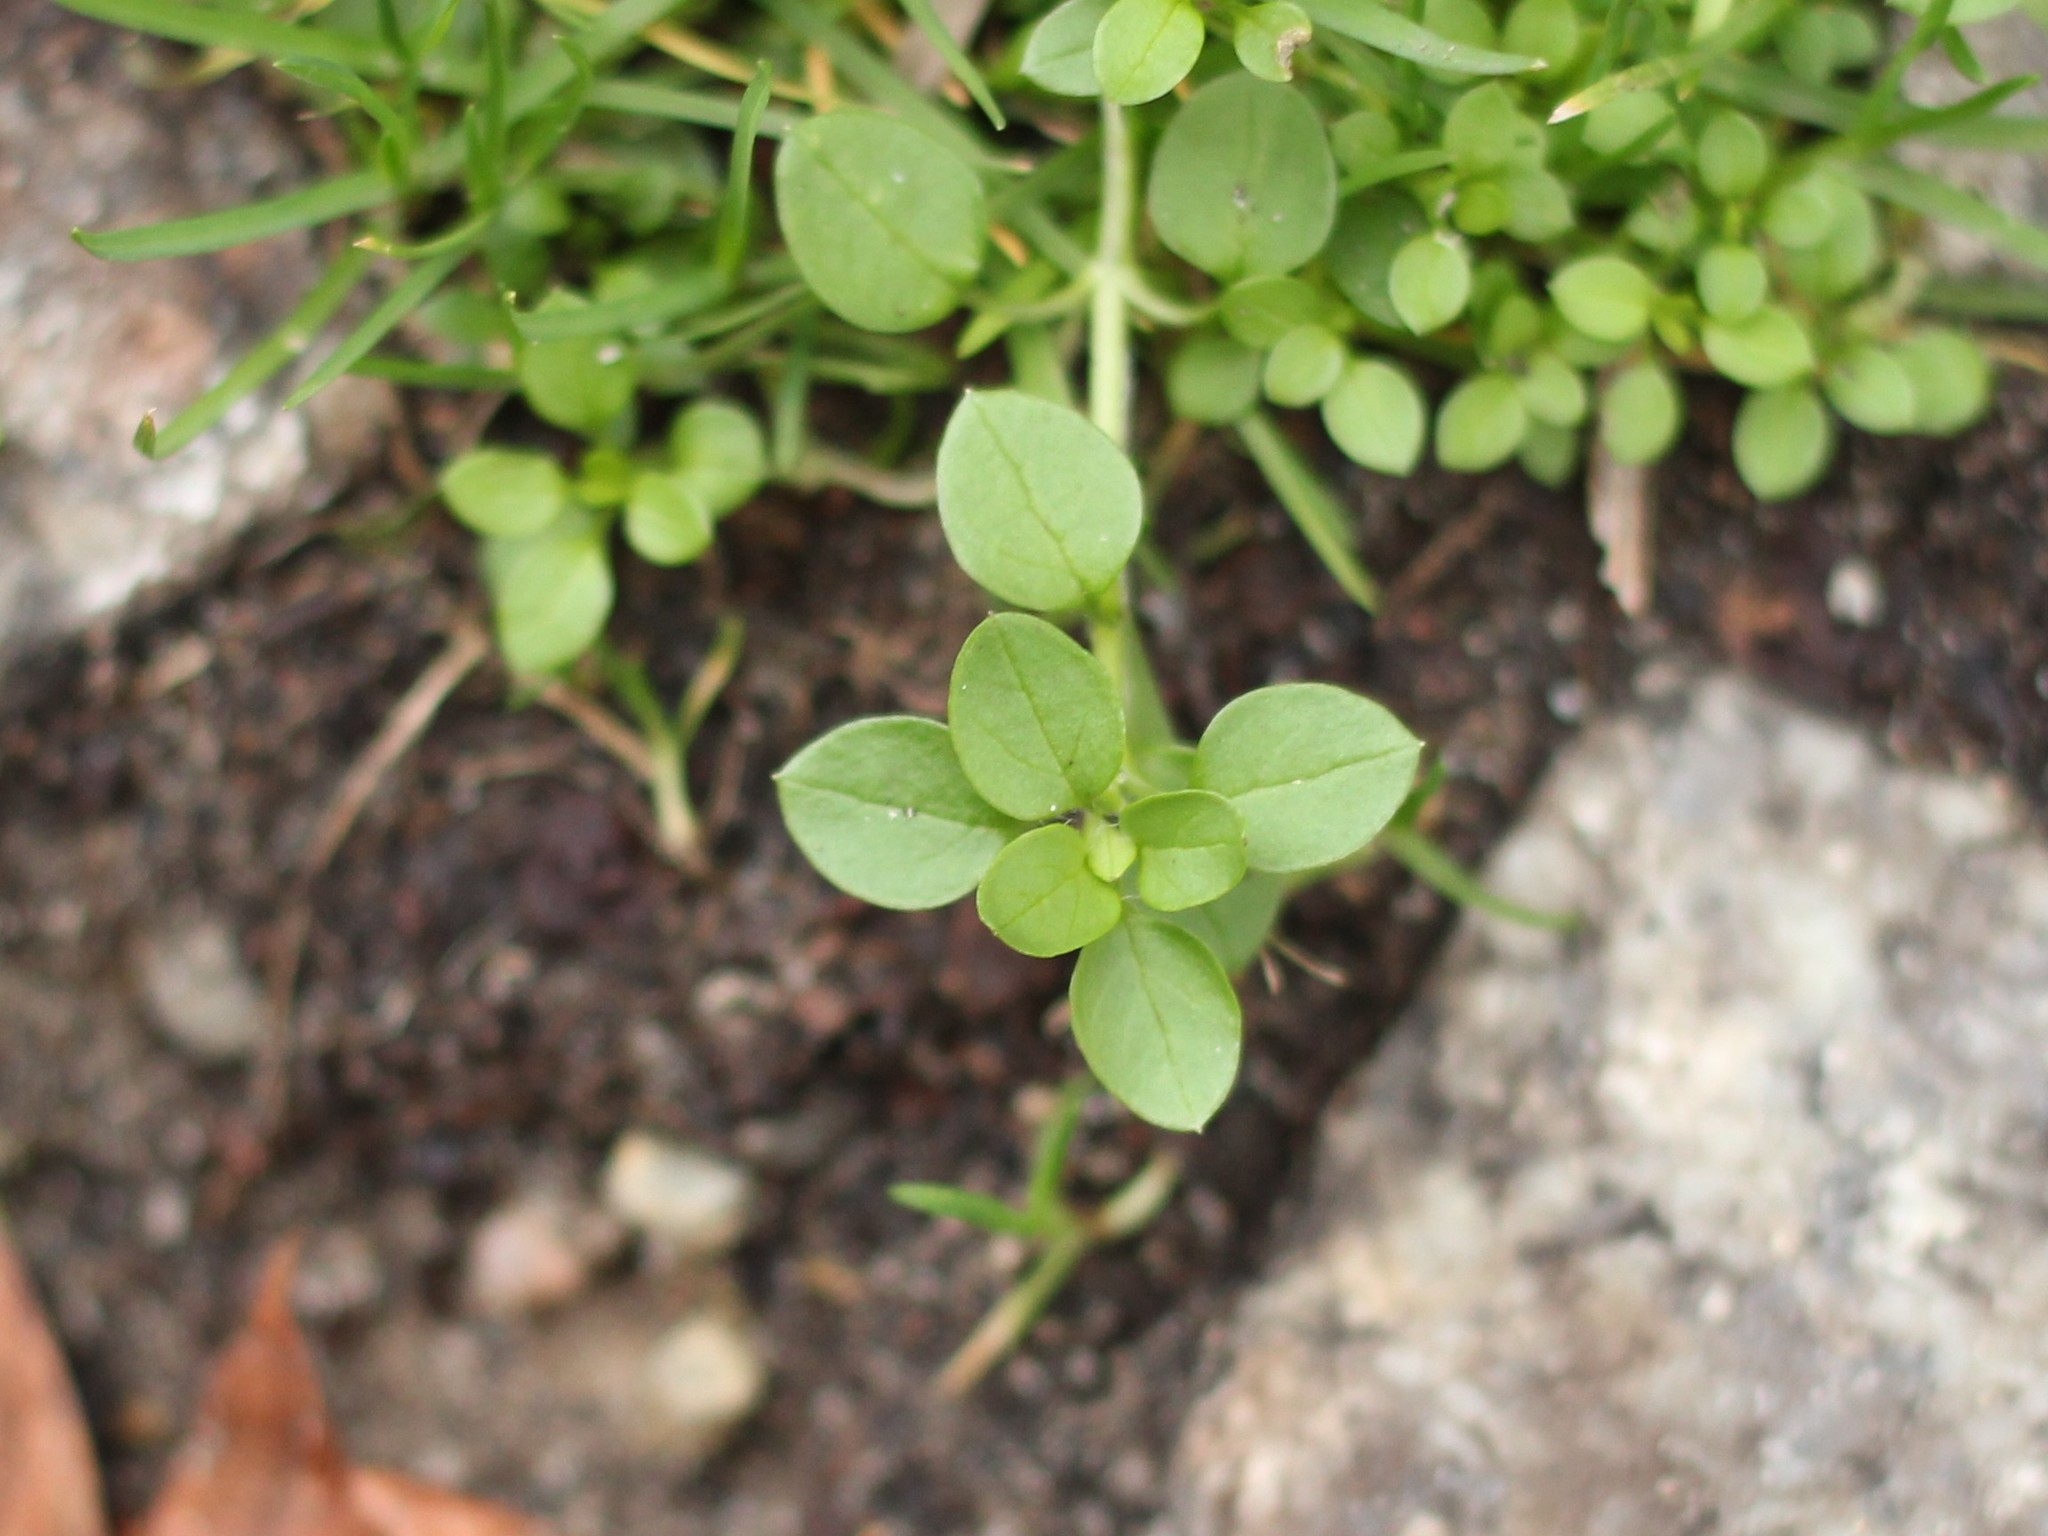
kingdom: Plantae
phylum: Tracheophyta
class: Magnoliopsida
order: Caryophyllales
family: Caryophyllaceae
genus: Stellaria
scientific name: Stellaria media
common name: Common chickweed
